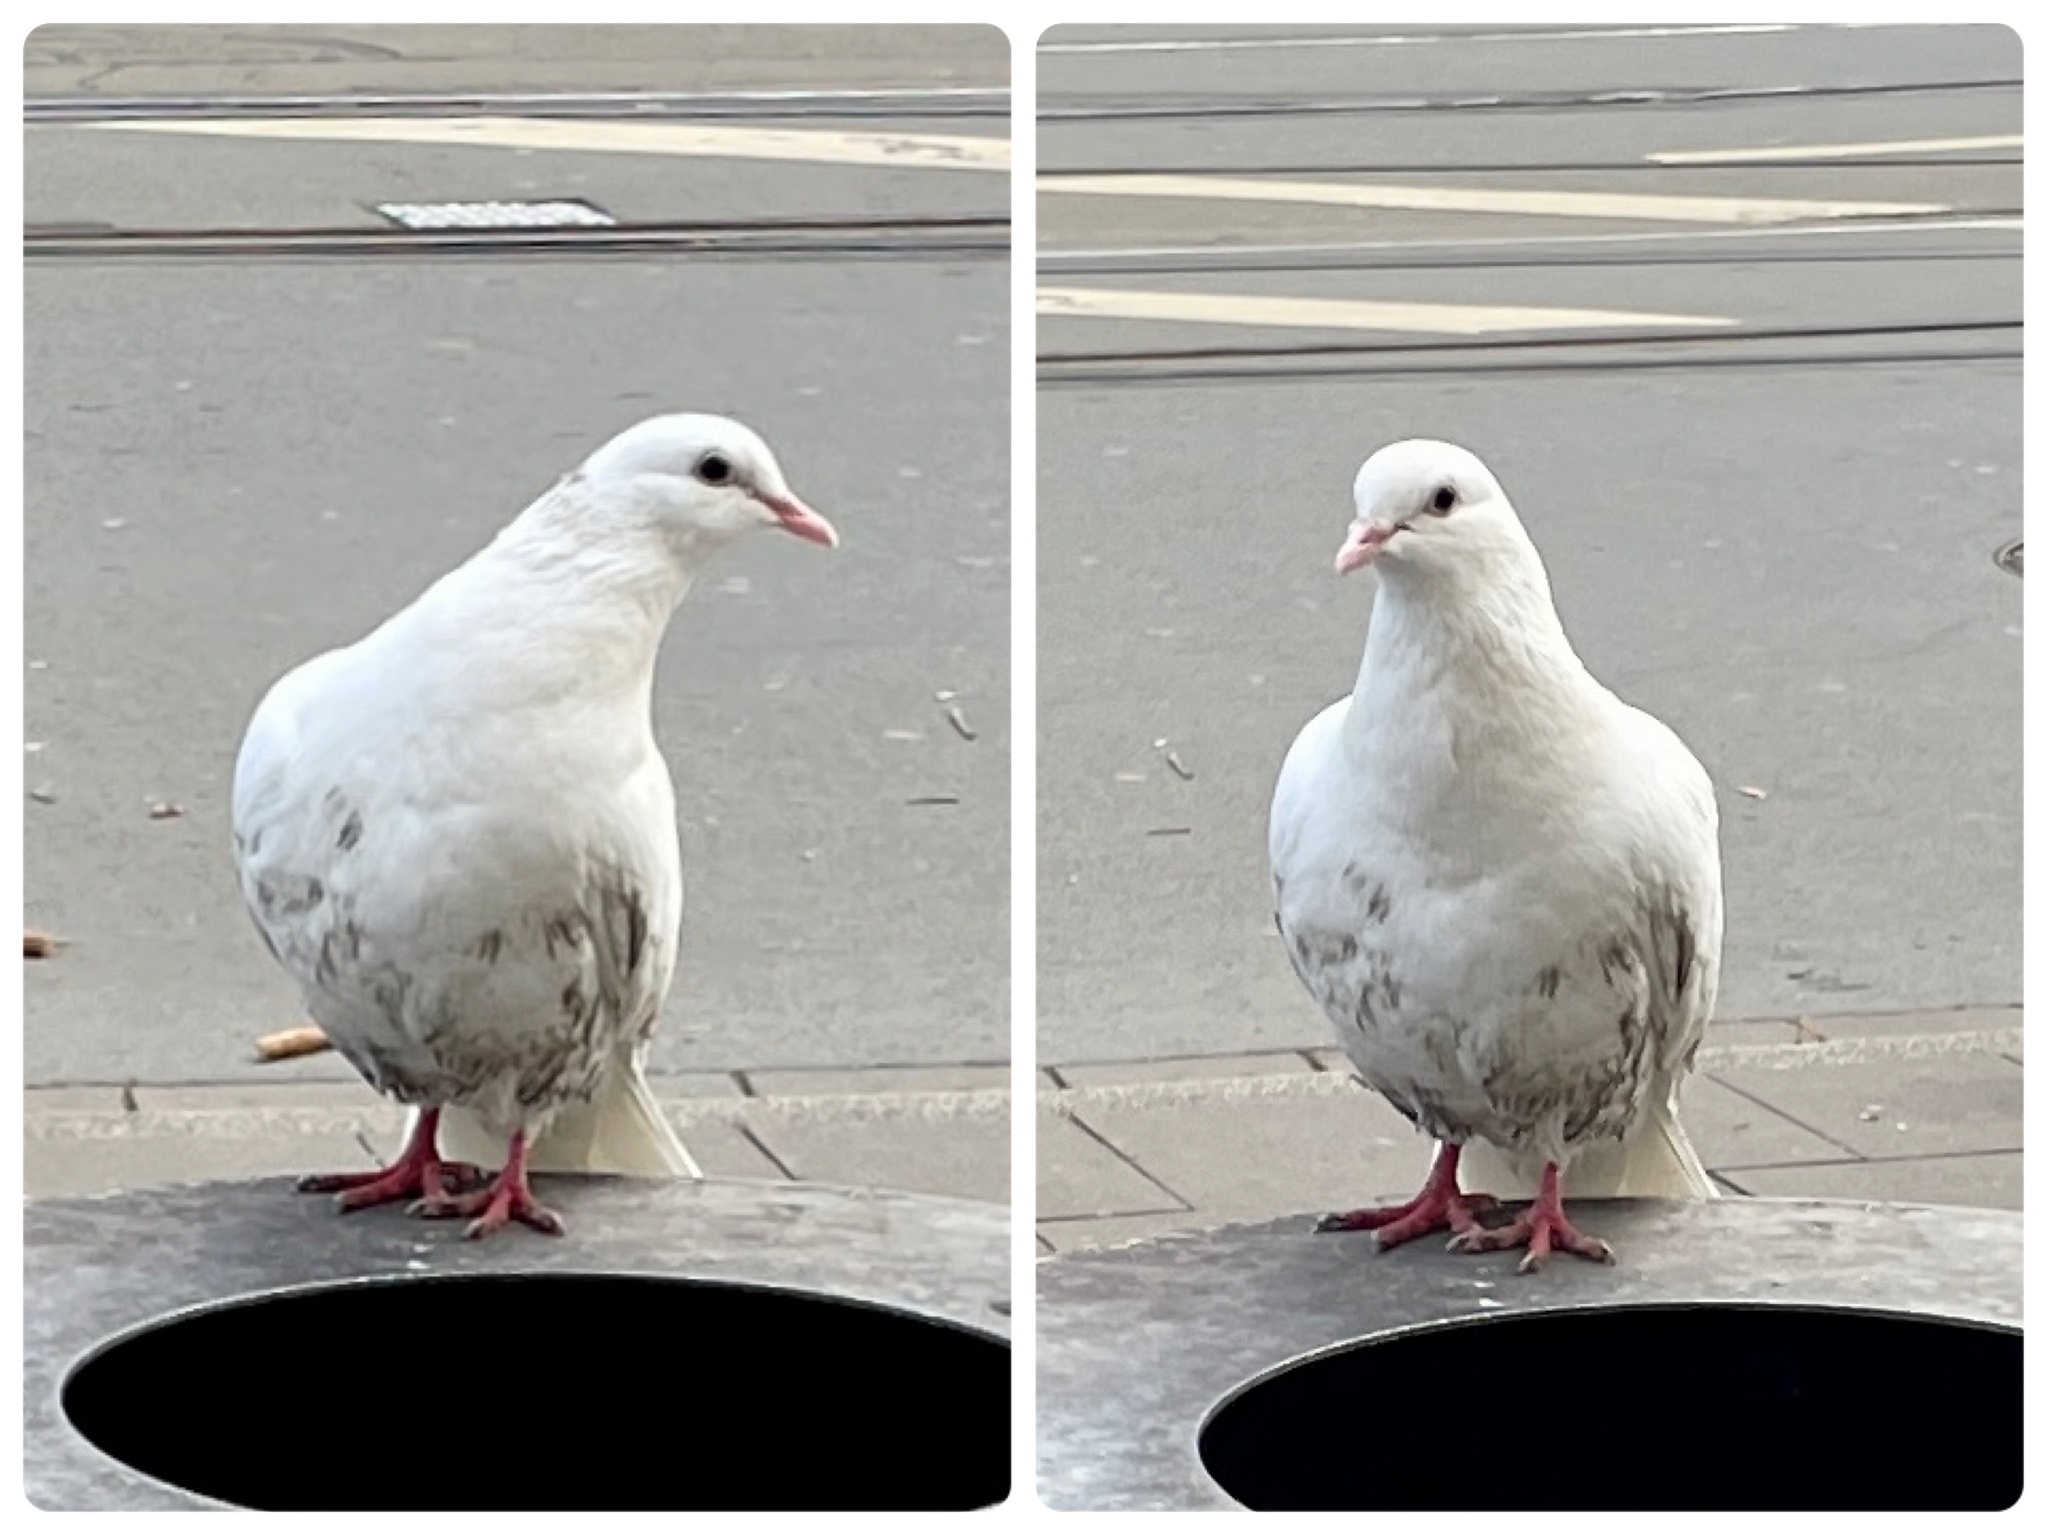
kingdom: Animalia
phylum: Chordata
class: Aves
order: Columbiformes
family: Columbidae
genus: Columba
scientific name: Columba livia
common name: Rock pigeon
